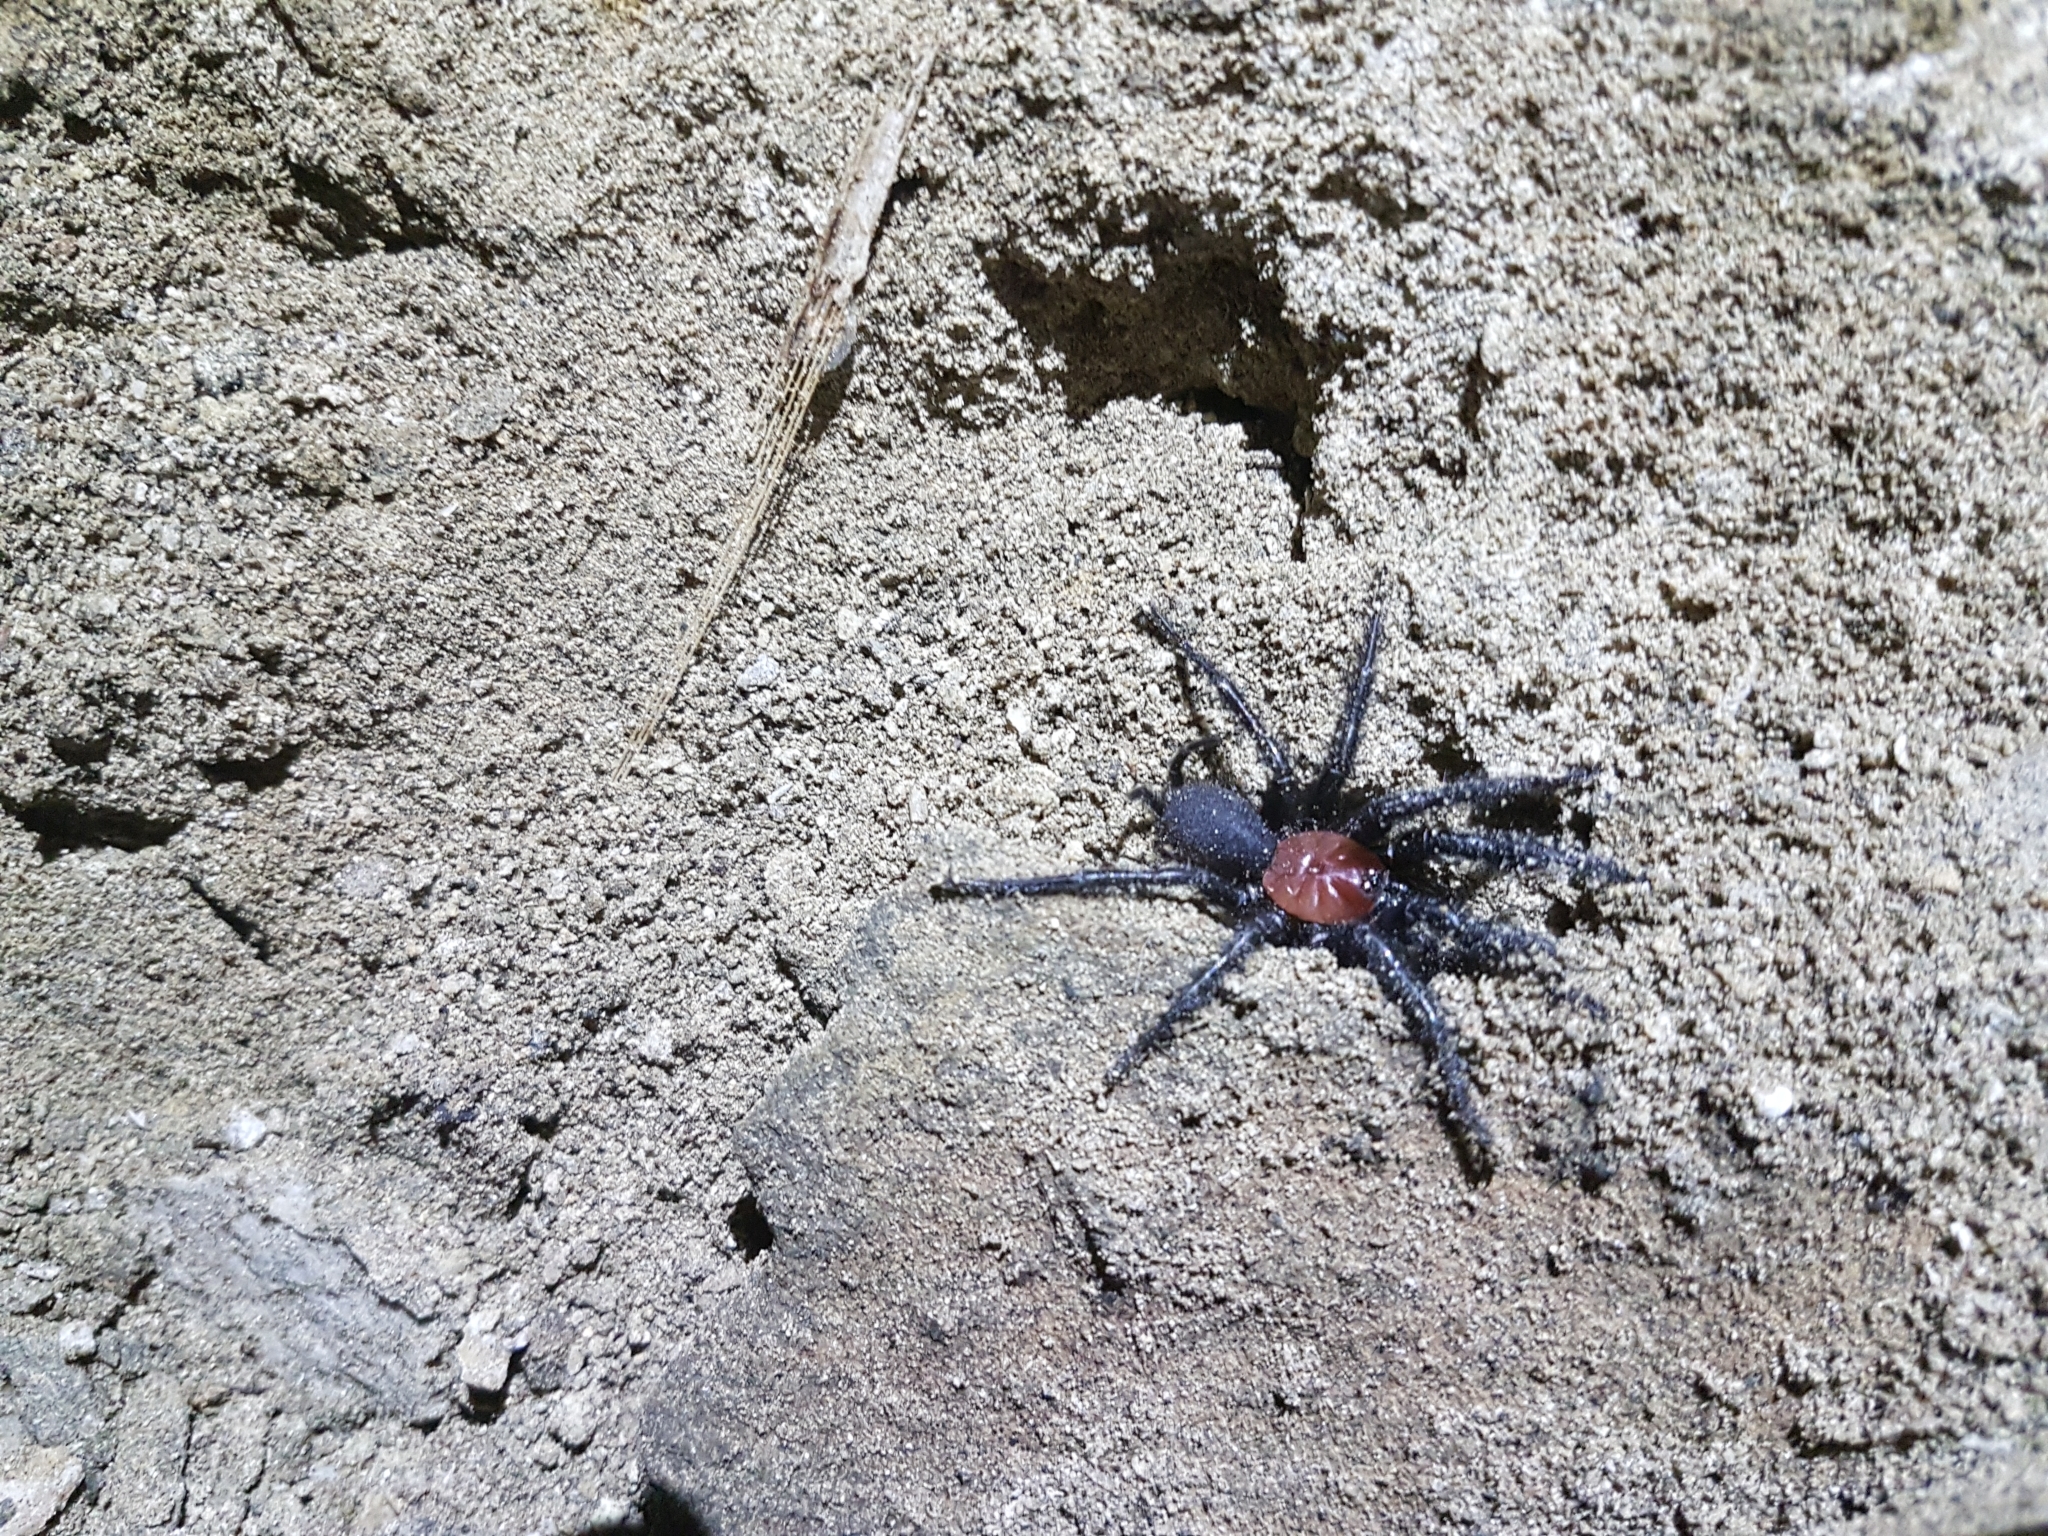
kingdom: Animalia
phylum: Arthropoda
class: Arachnida
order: Araneae
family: Porrhothelidae
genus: Porrhothele
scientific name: Porrhothele antipodiana
